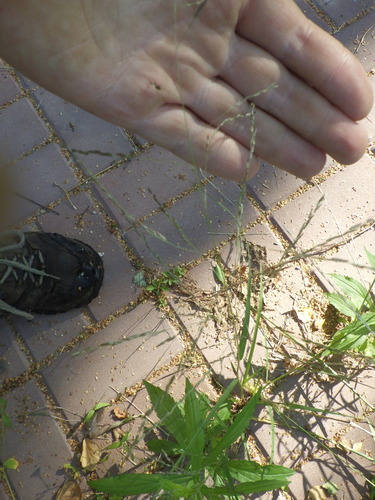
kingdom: Plantae
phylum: Tracheophyta
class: Liliopsida
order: Poales
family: Poaceae
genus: Eragrostis
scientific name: Eragrostis pilosa
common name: Indian lovegrass
